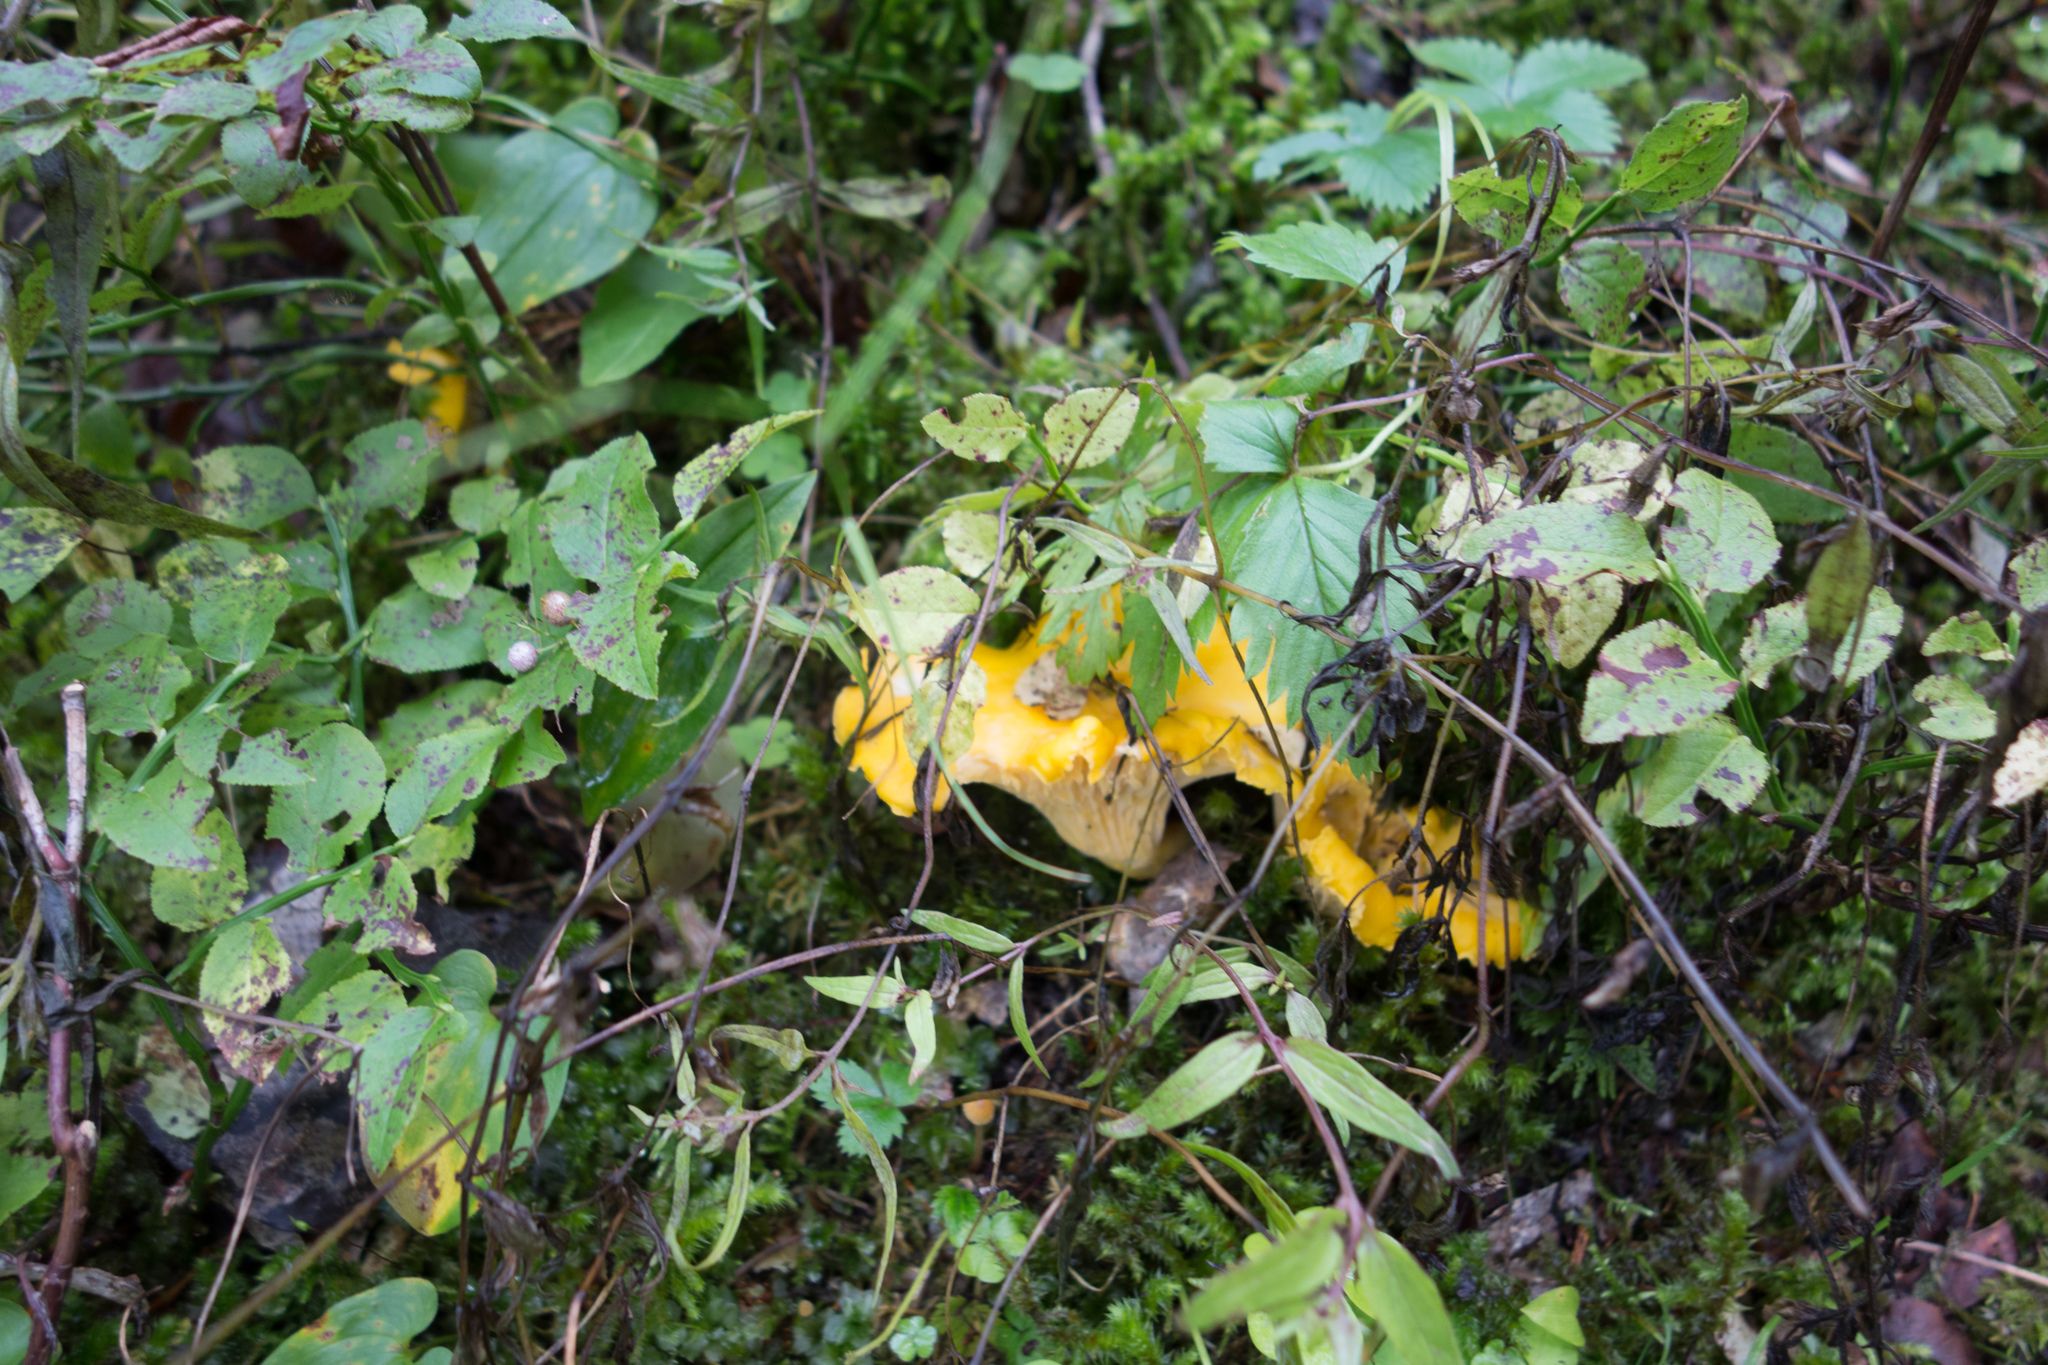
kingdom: Fungi
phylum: Basidiomycota
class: Agaricomycetes
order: Cantharellales
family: Hydnaceae
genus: Cantharellus
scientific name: Cantharellus cibarius
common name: Chanterelle
